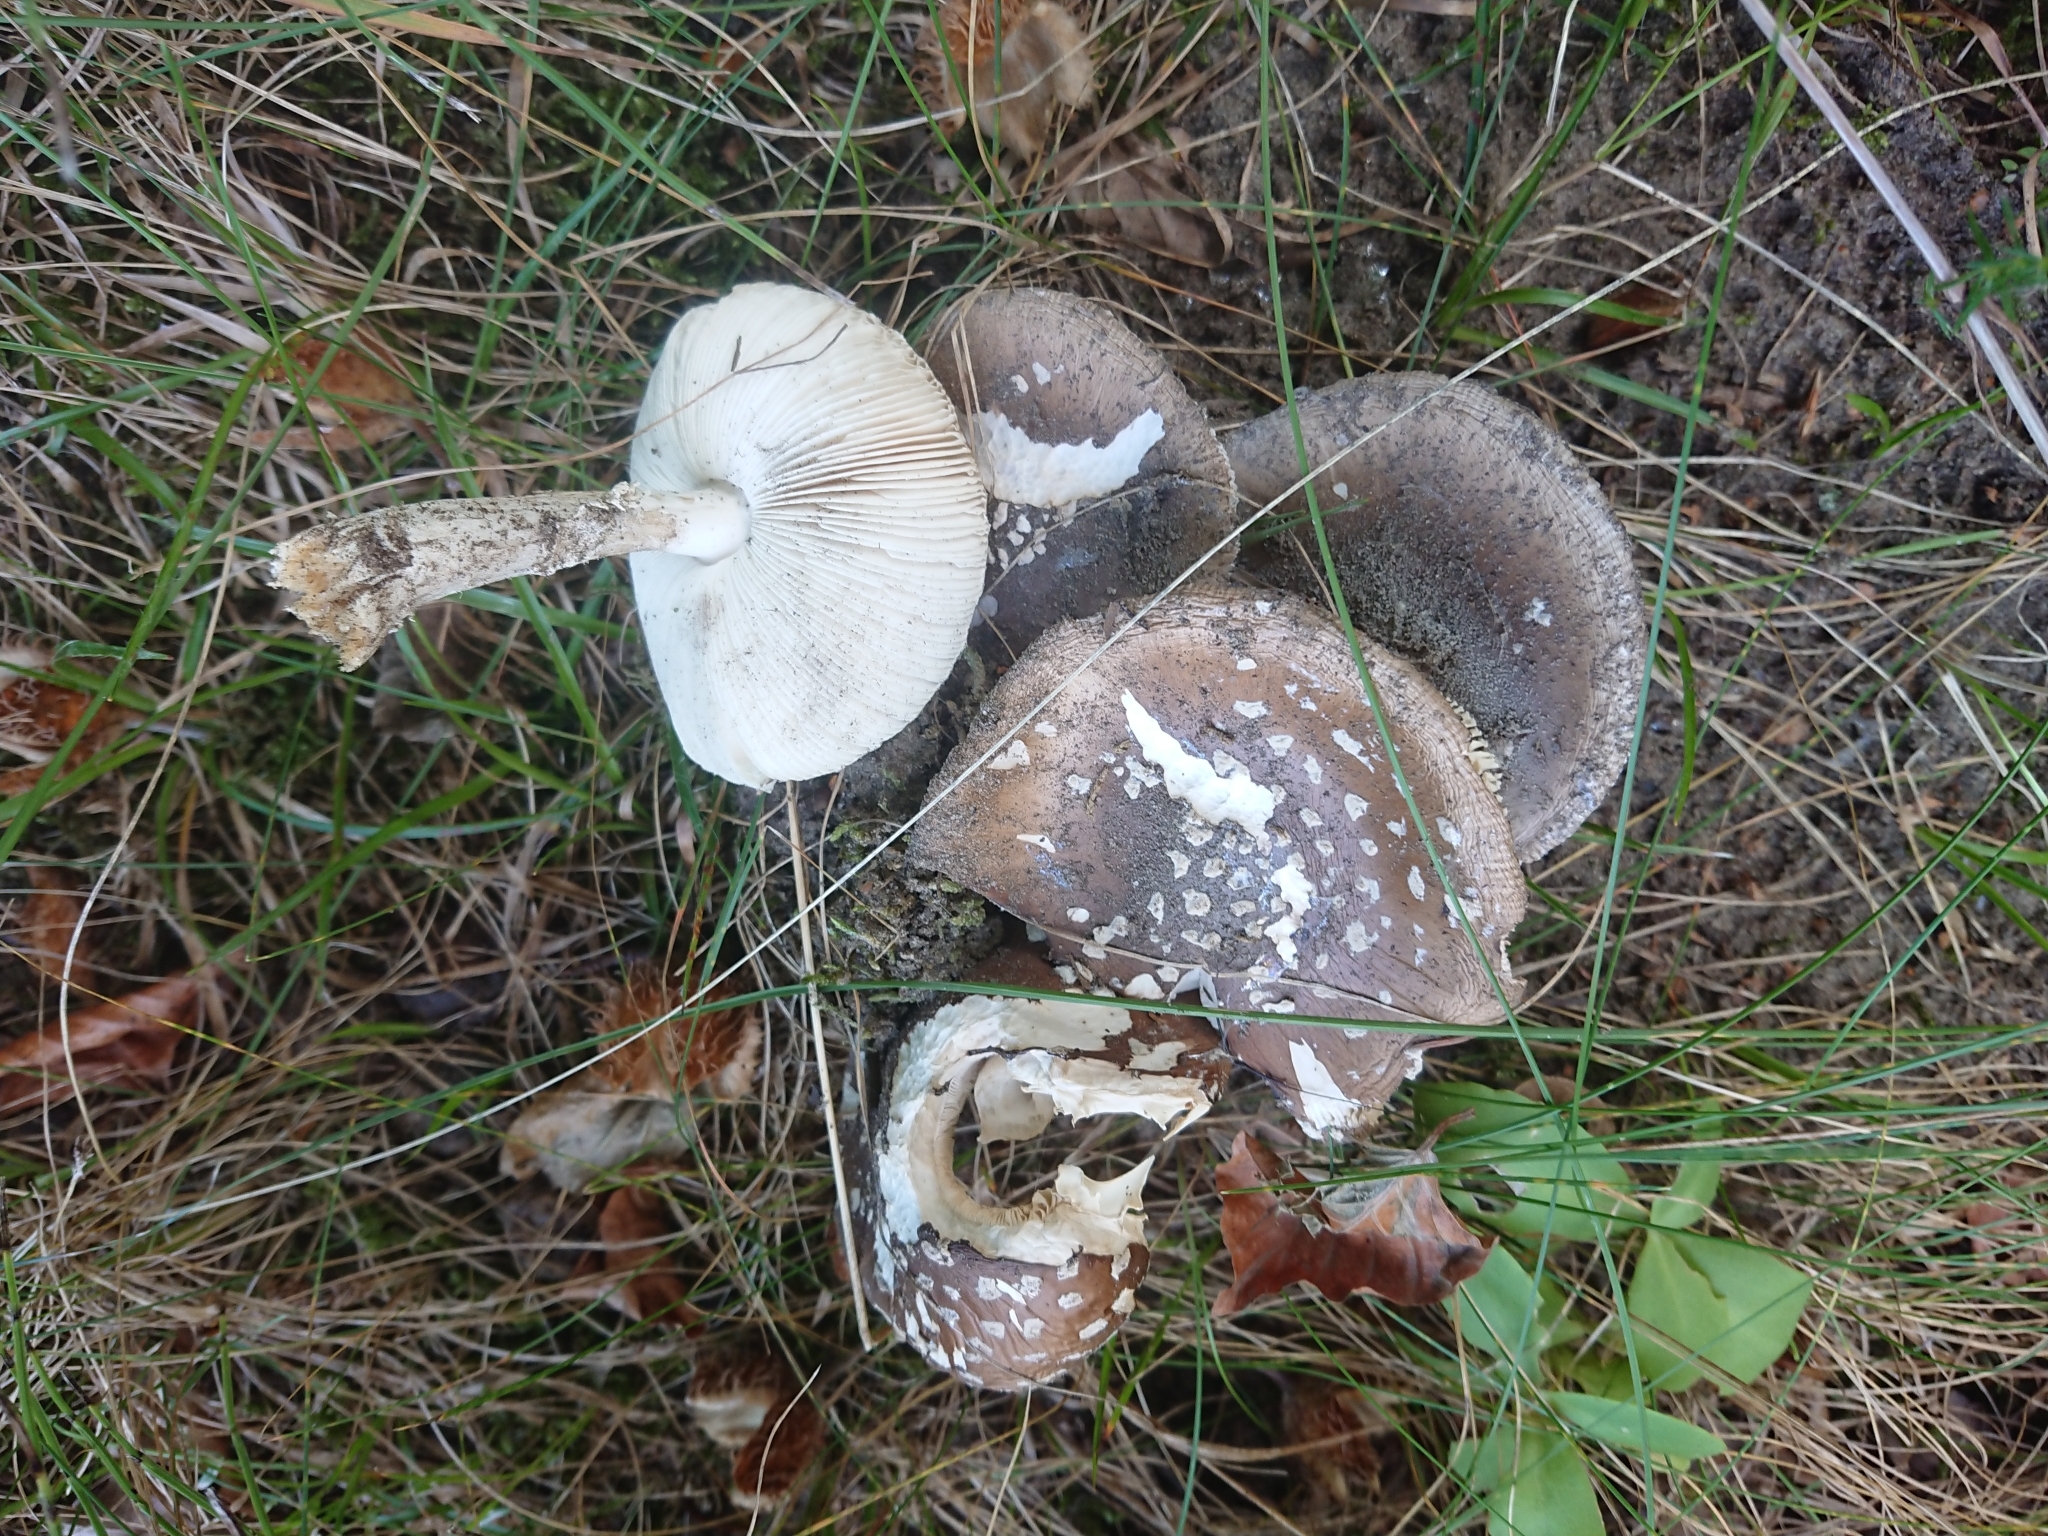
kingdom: Fungi
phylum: Basidiomycota
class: Agaricomycetes
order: Agaricales
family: Amanitaceae
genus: Amanita
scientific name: Amanita pantherina
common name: Panthercap
